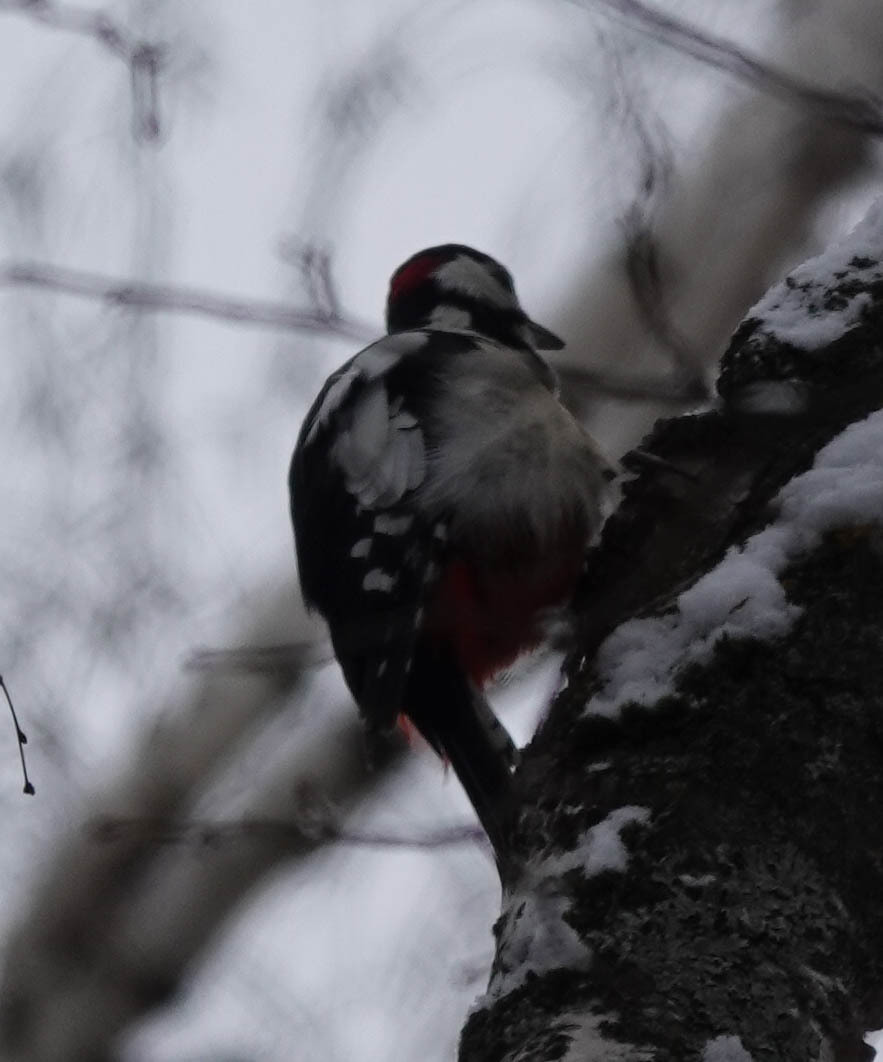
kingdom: Animalia
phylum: Chordata
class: Aves
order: Piciformes
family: Picidae
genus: Dendrocopos
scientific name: Dendrocopos major
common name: Great spotted woodpecker
